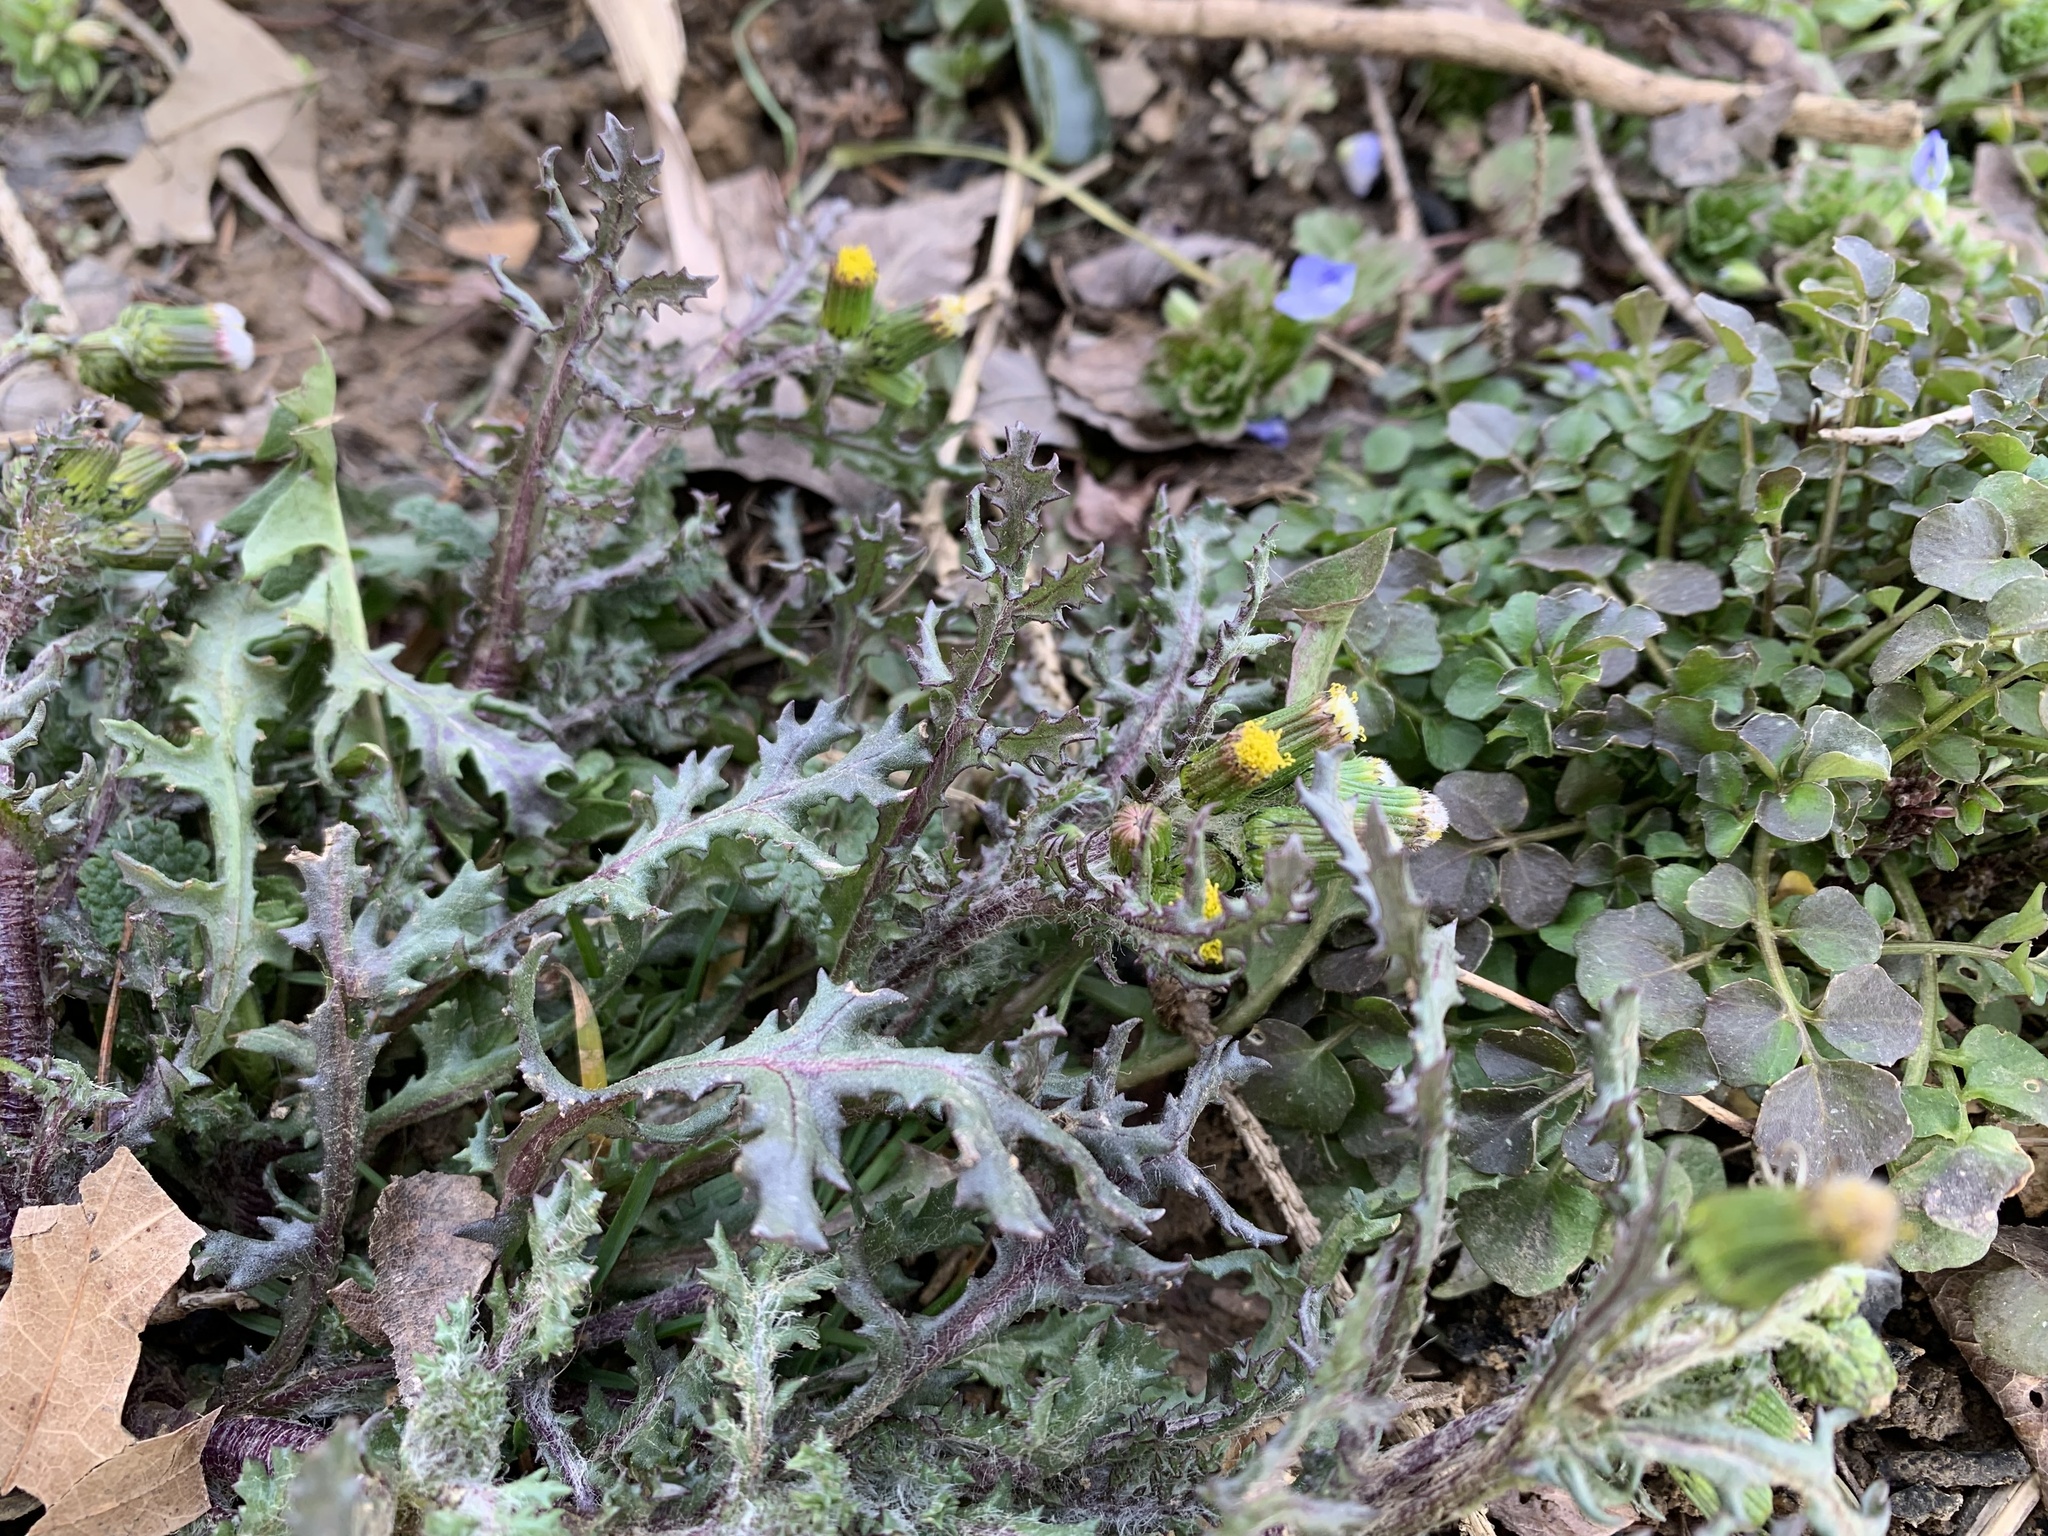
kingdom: Plantae
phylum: Tracheophyta
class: Magnoliopsida
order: Asterales
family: Asteraceae
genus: Senecio
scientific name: Senecio vulgaris
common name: Old-man-in-the-spring
